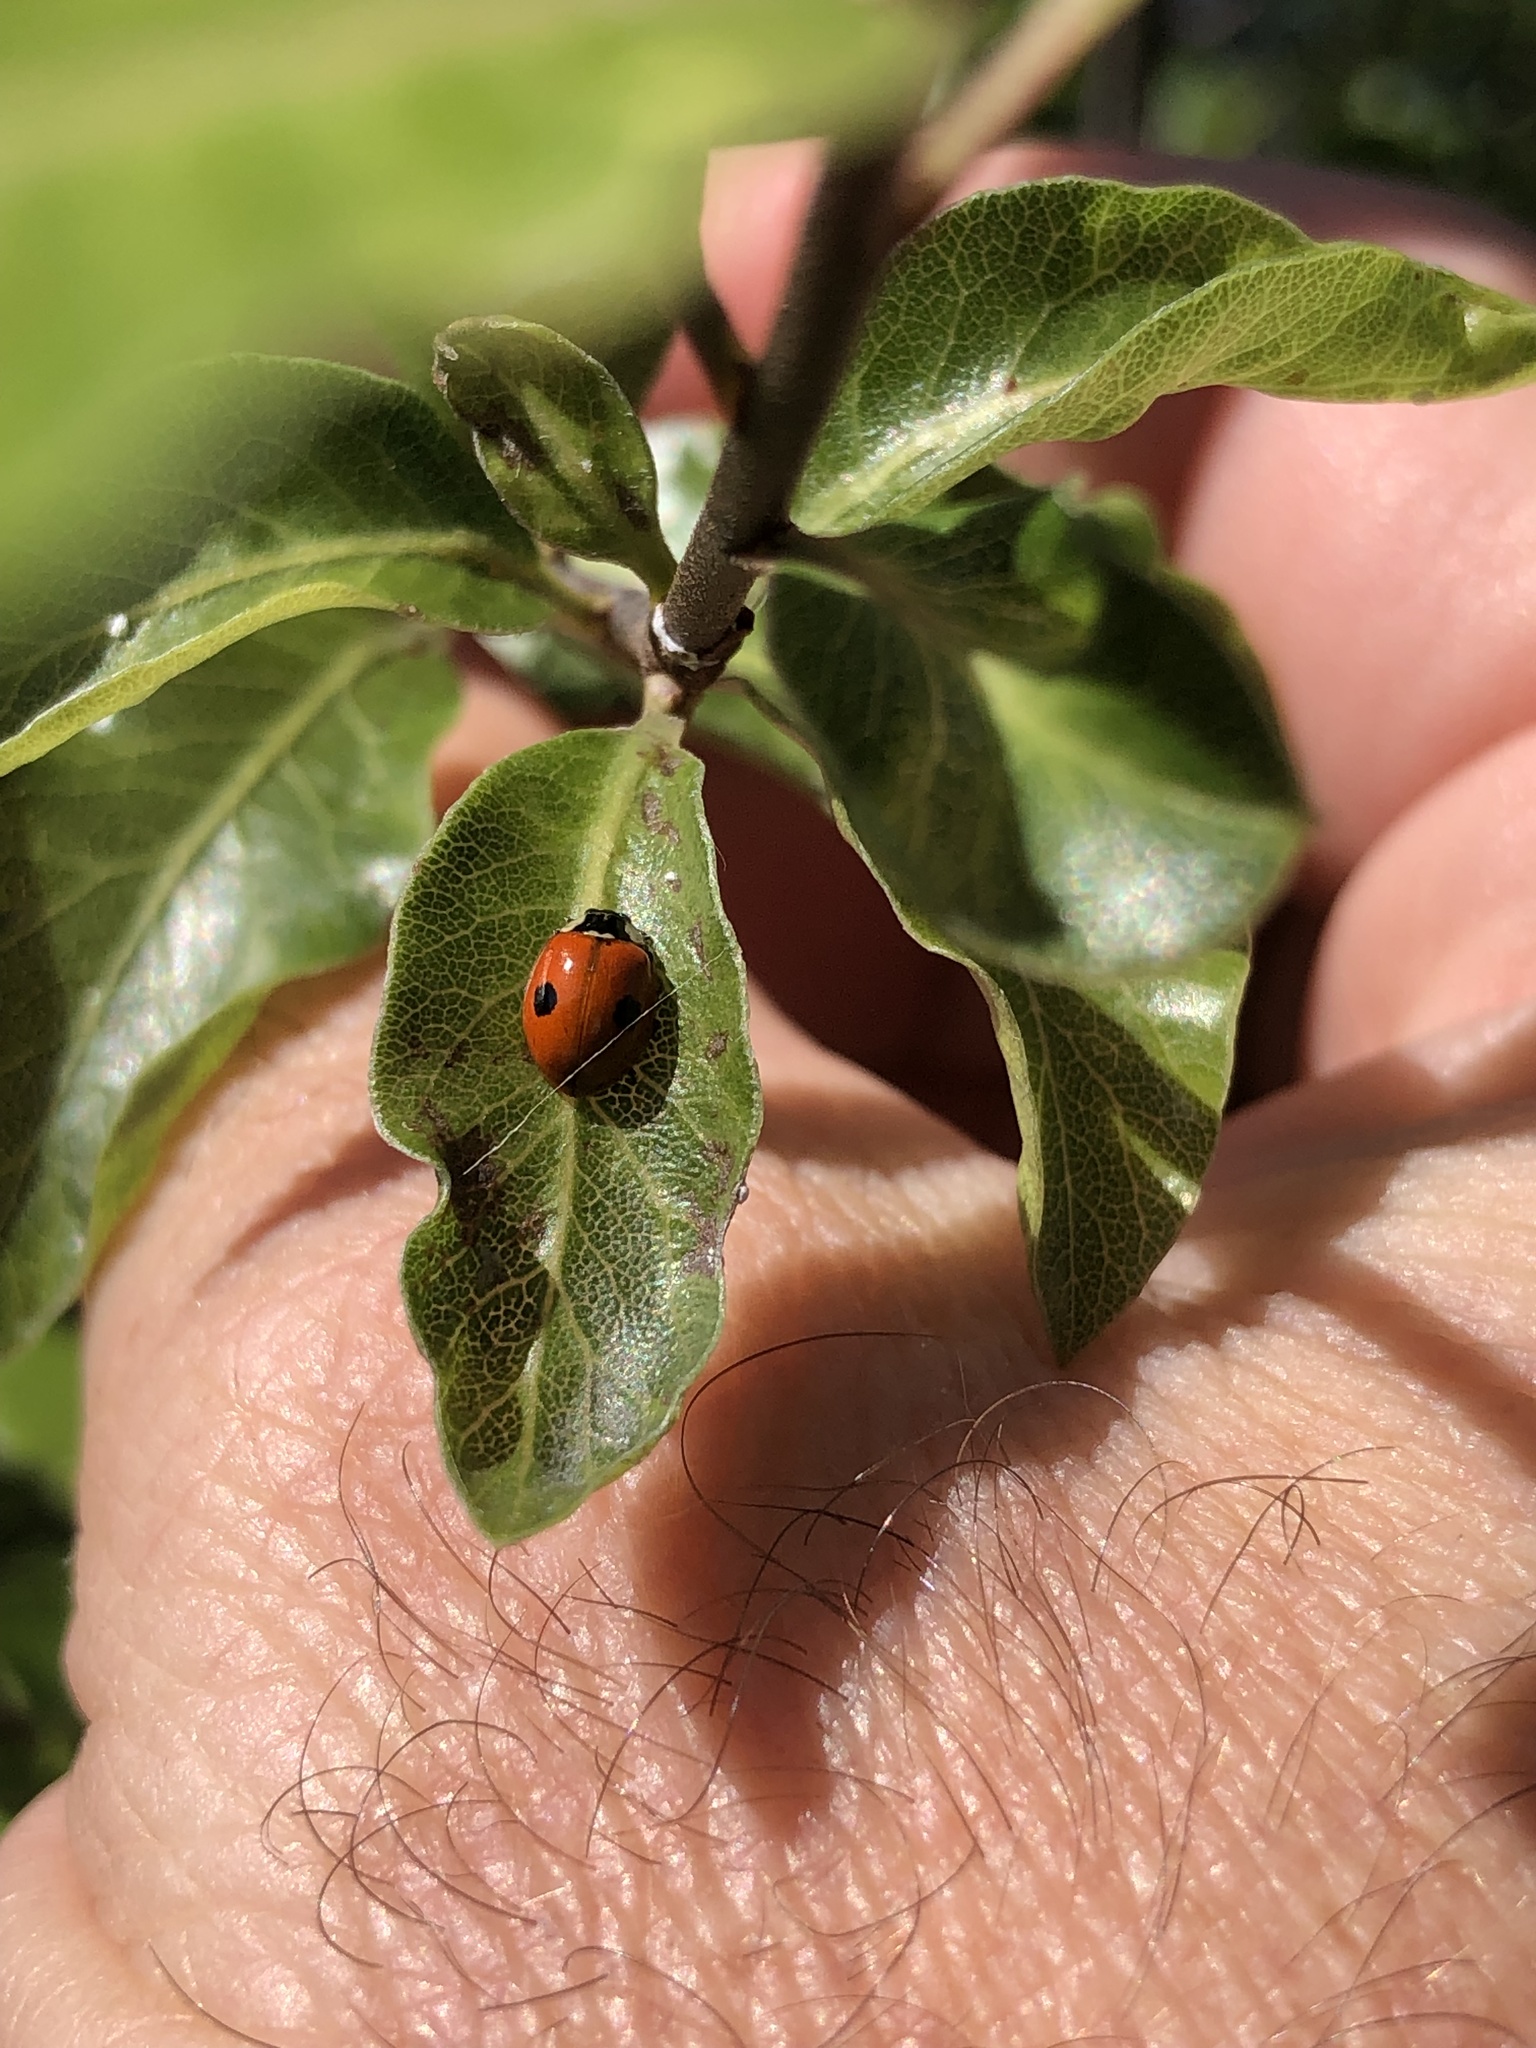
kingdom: Animalia
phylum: Arthropoda
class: Insecta
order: Coleoptera
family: Coccinellidae
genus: Adalia
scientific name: Adalia bipunctata
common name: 2-spot ladybird
